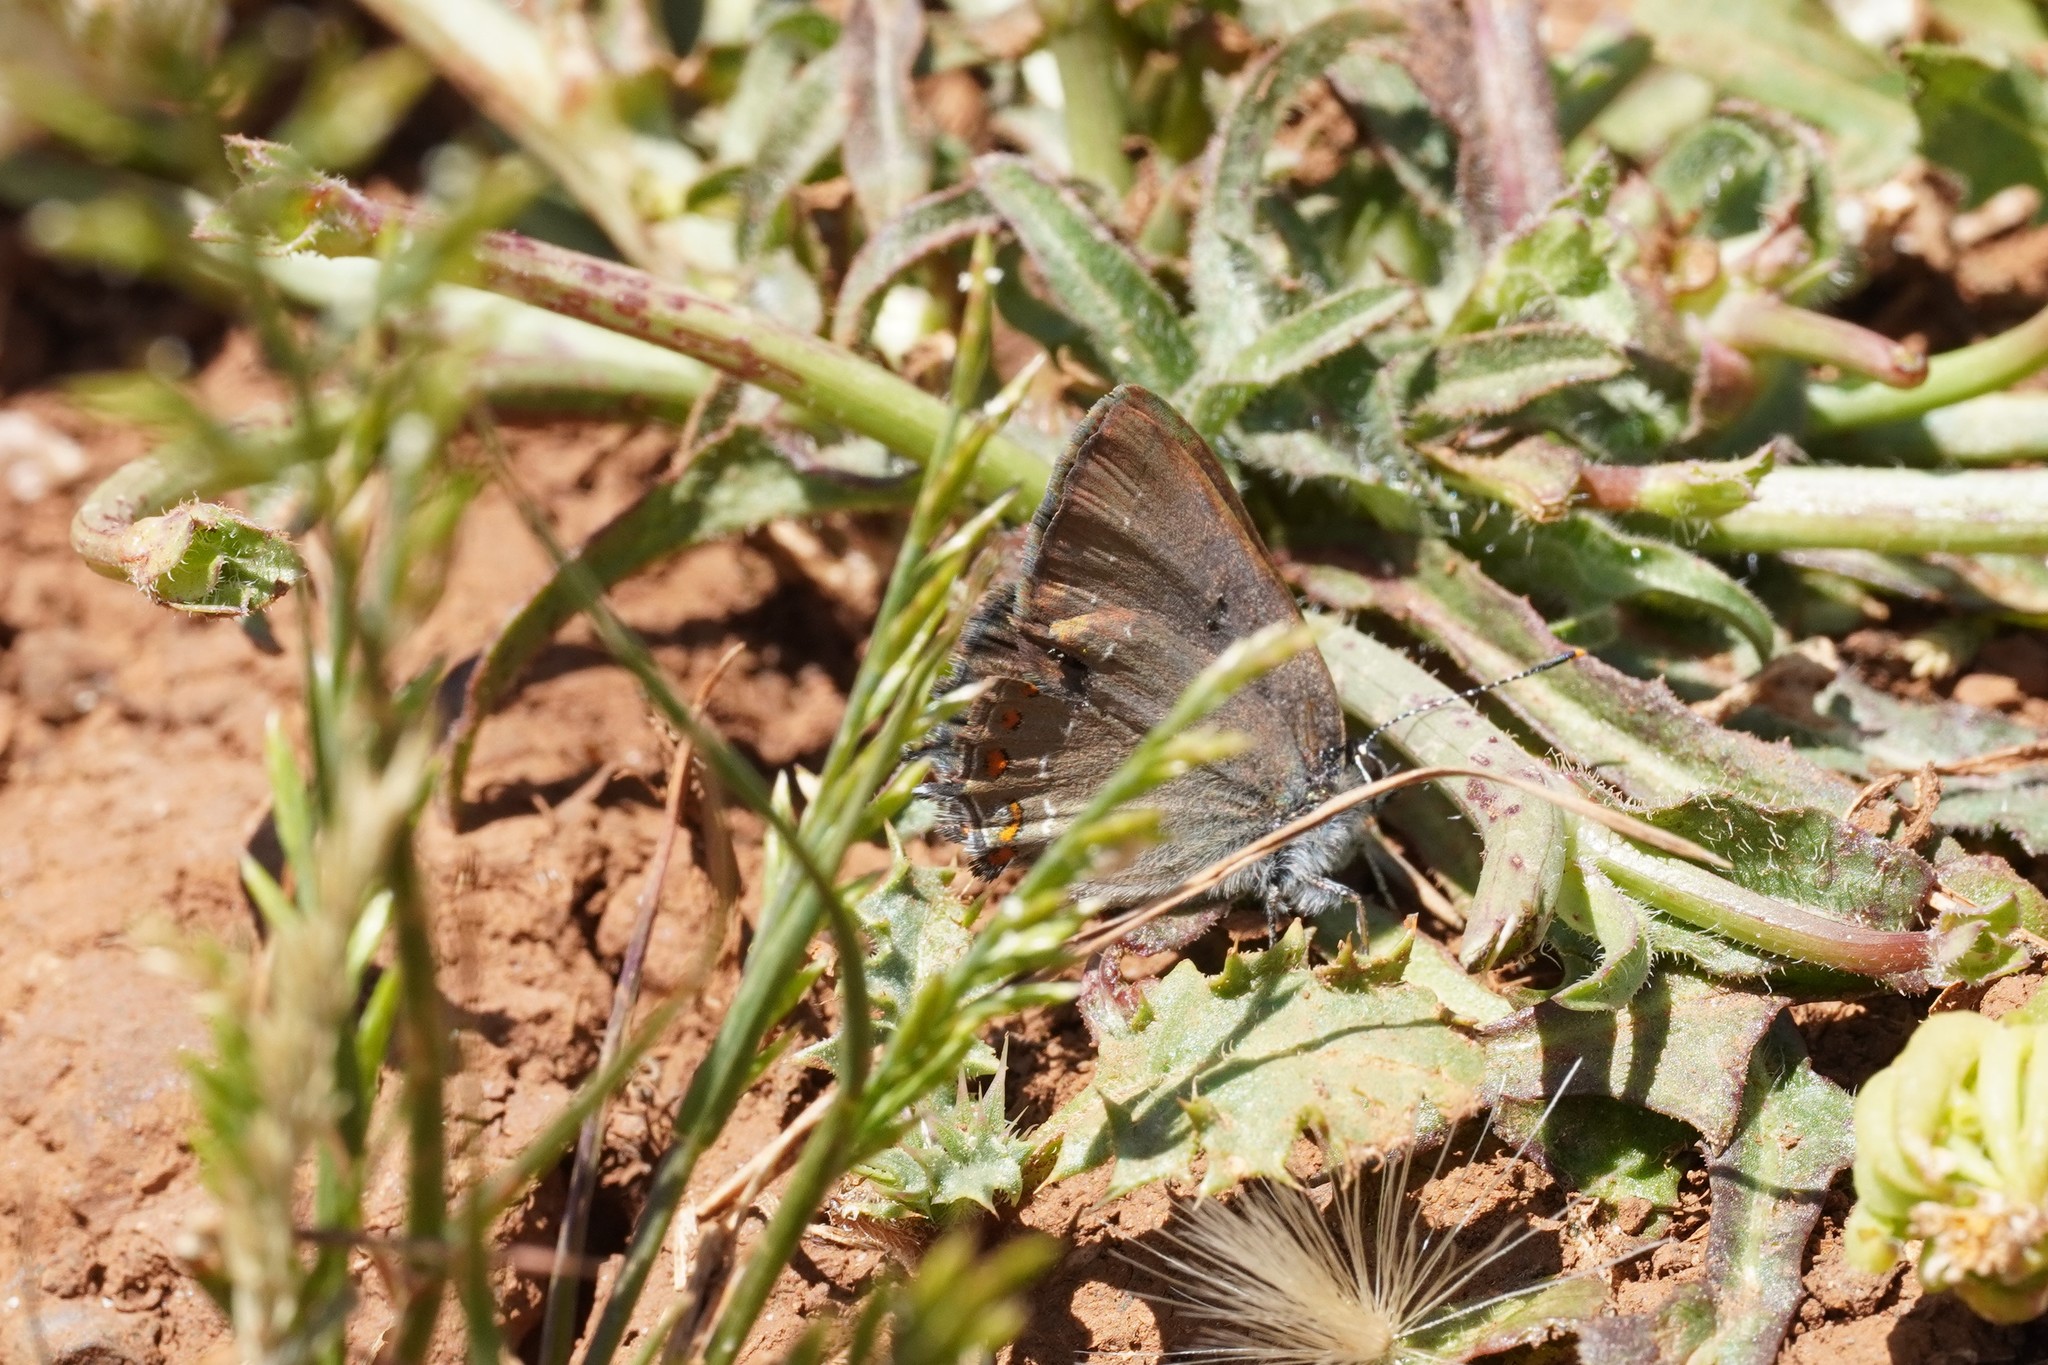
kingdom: Animalia
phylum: Arthropoda
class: Insecta
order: Lepidoptera
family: Lycaenidae
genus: Fixsenia
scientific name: Fixsenia esculi
